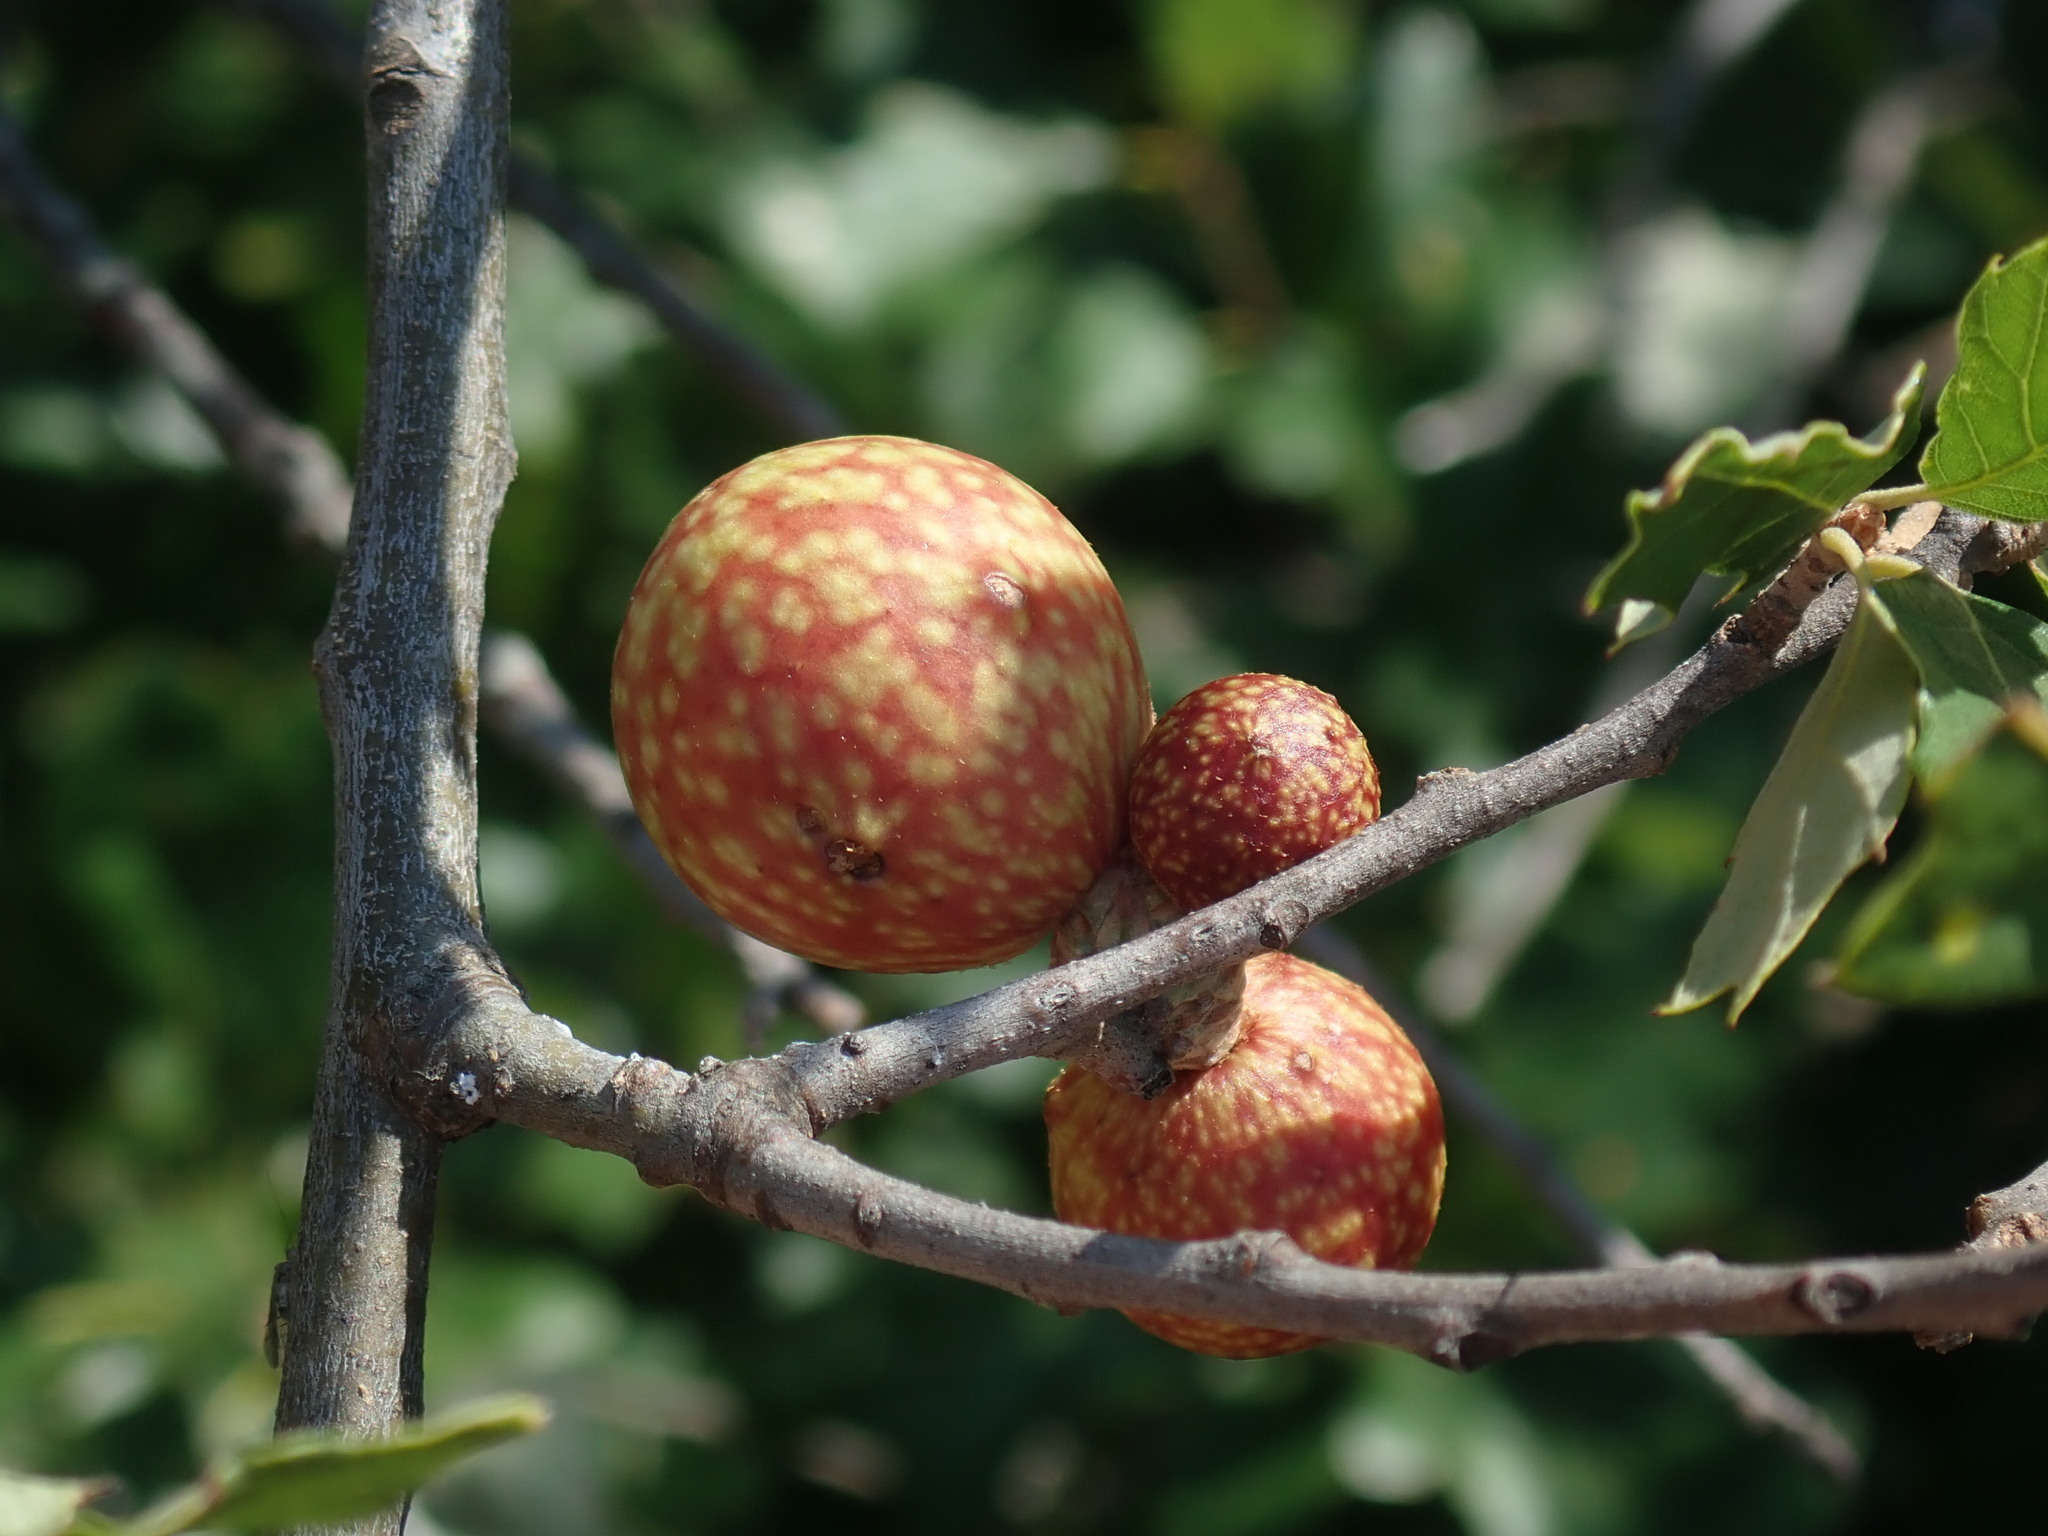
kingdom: Animalia
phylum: Arthropoda
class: Insecta
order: Hymenoptera
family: Cynipidae
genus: Amphibolips
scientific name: Amphibolips
